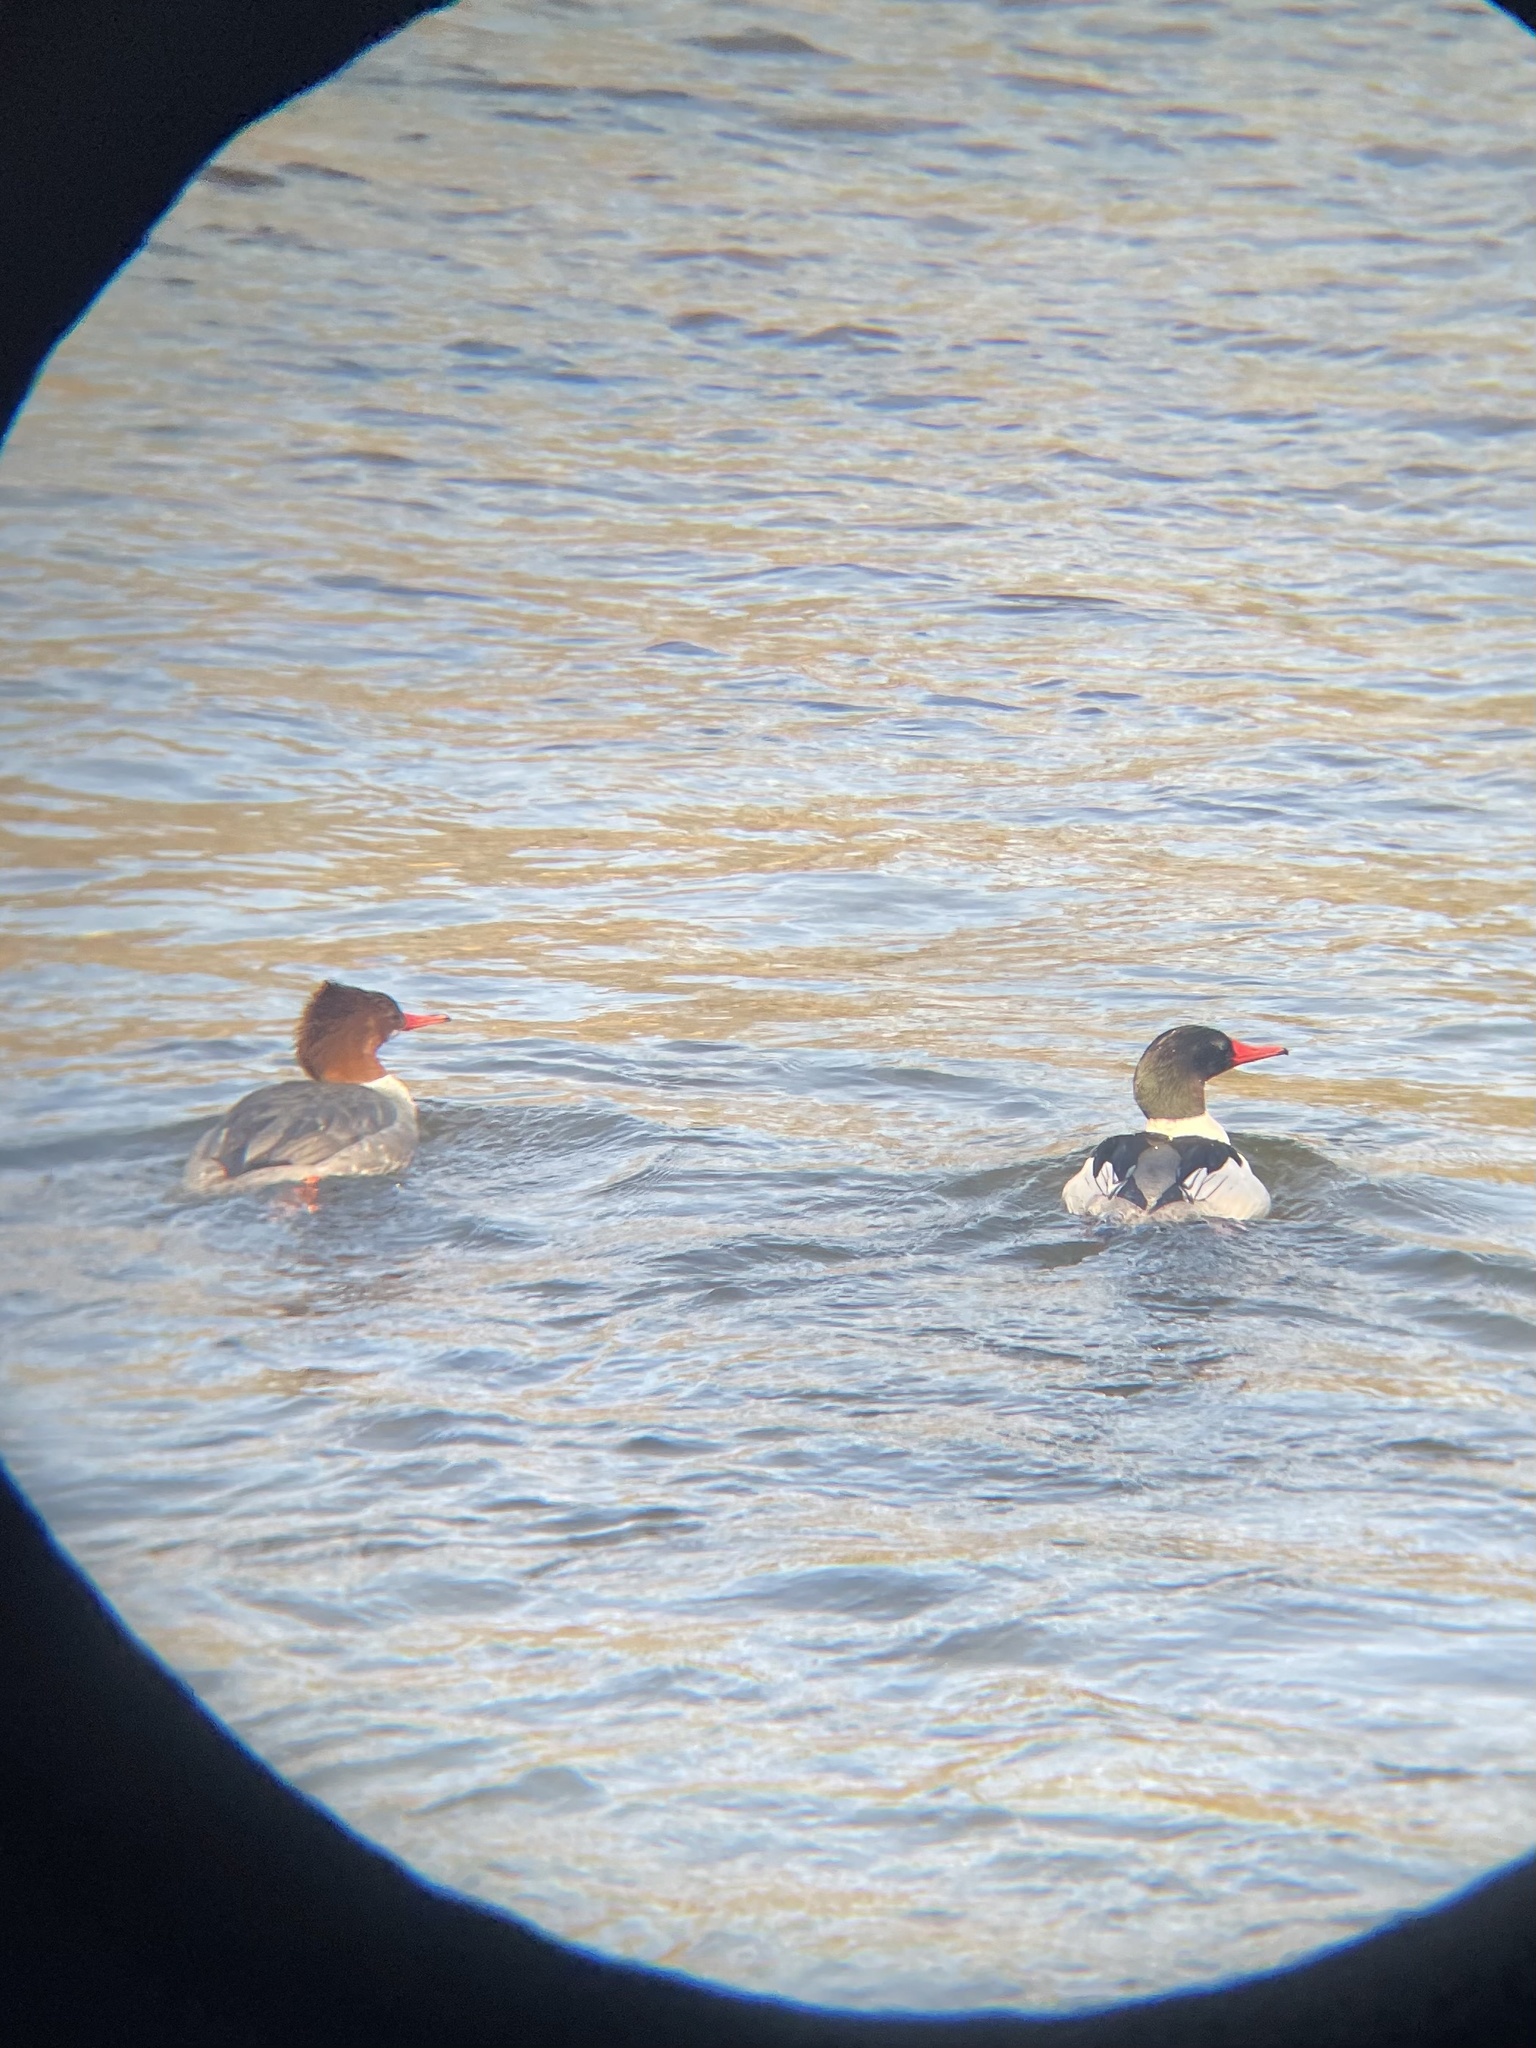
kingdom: Animalia
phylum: Chordata
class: Aves
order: Anseriformes
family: Anatidae
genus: Mergus
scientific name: Mergus merganser
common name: Common merganser
